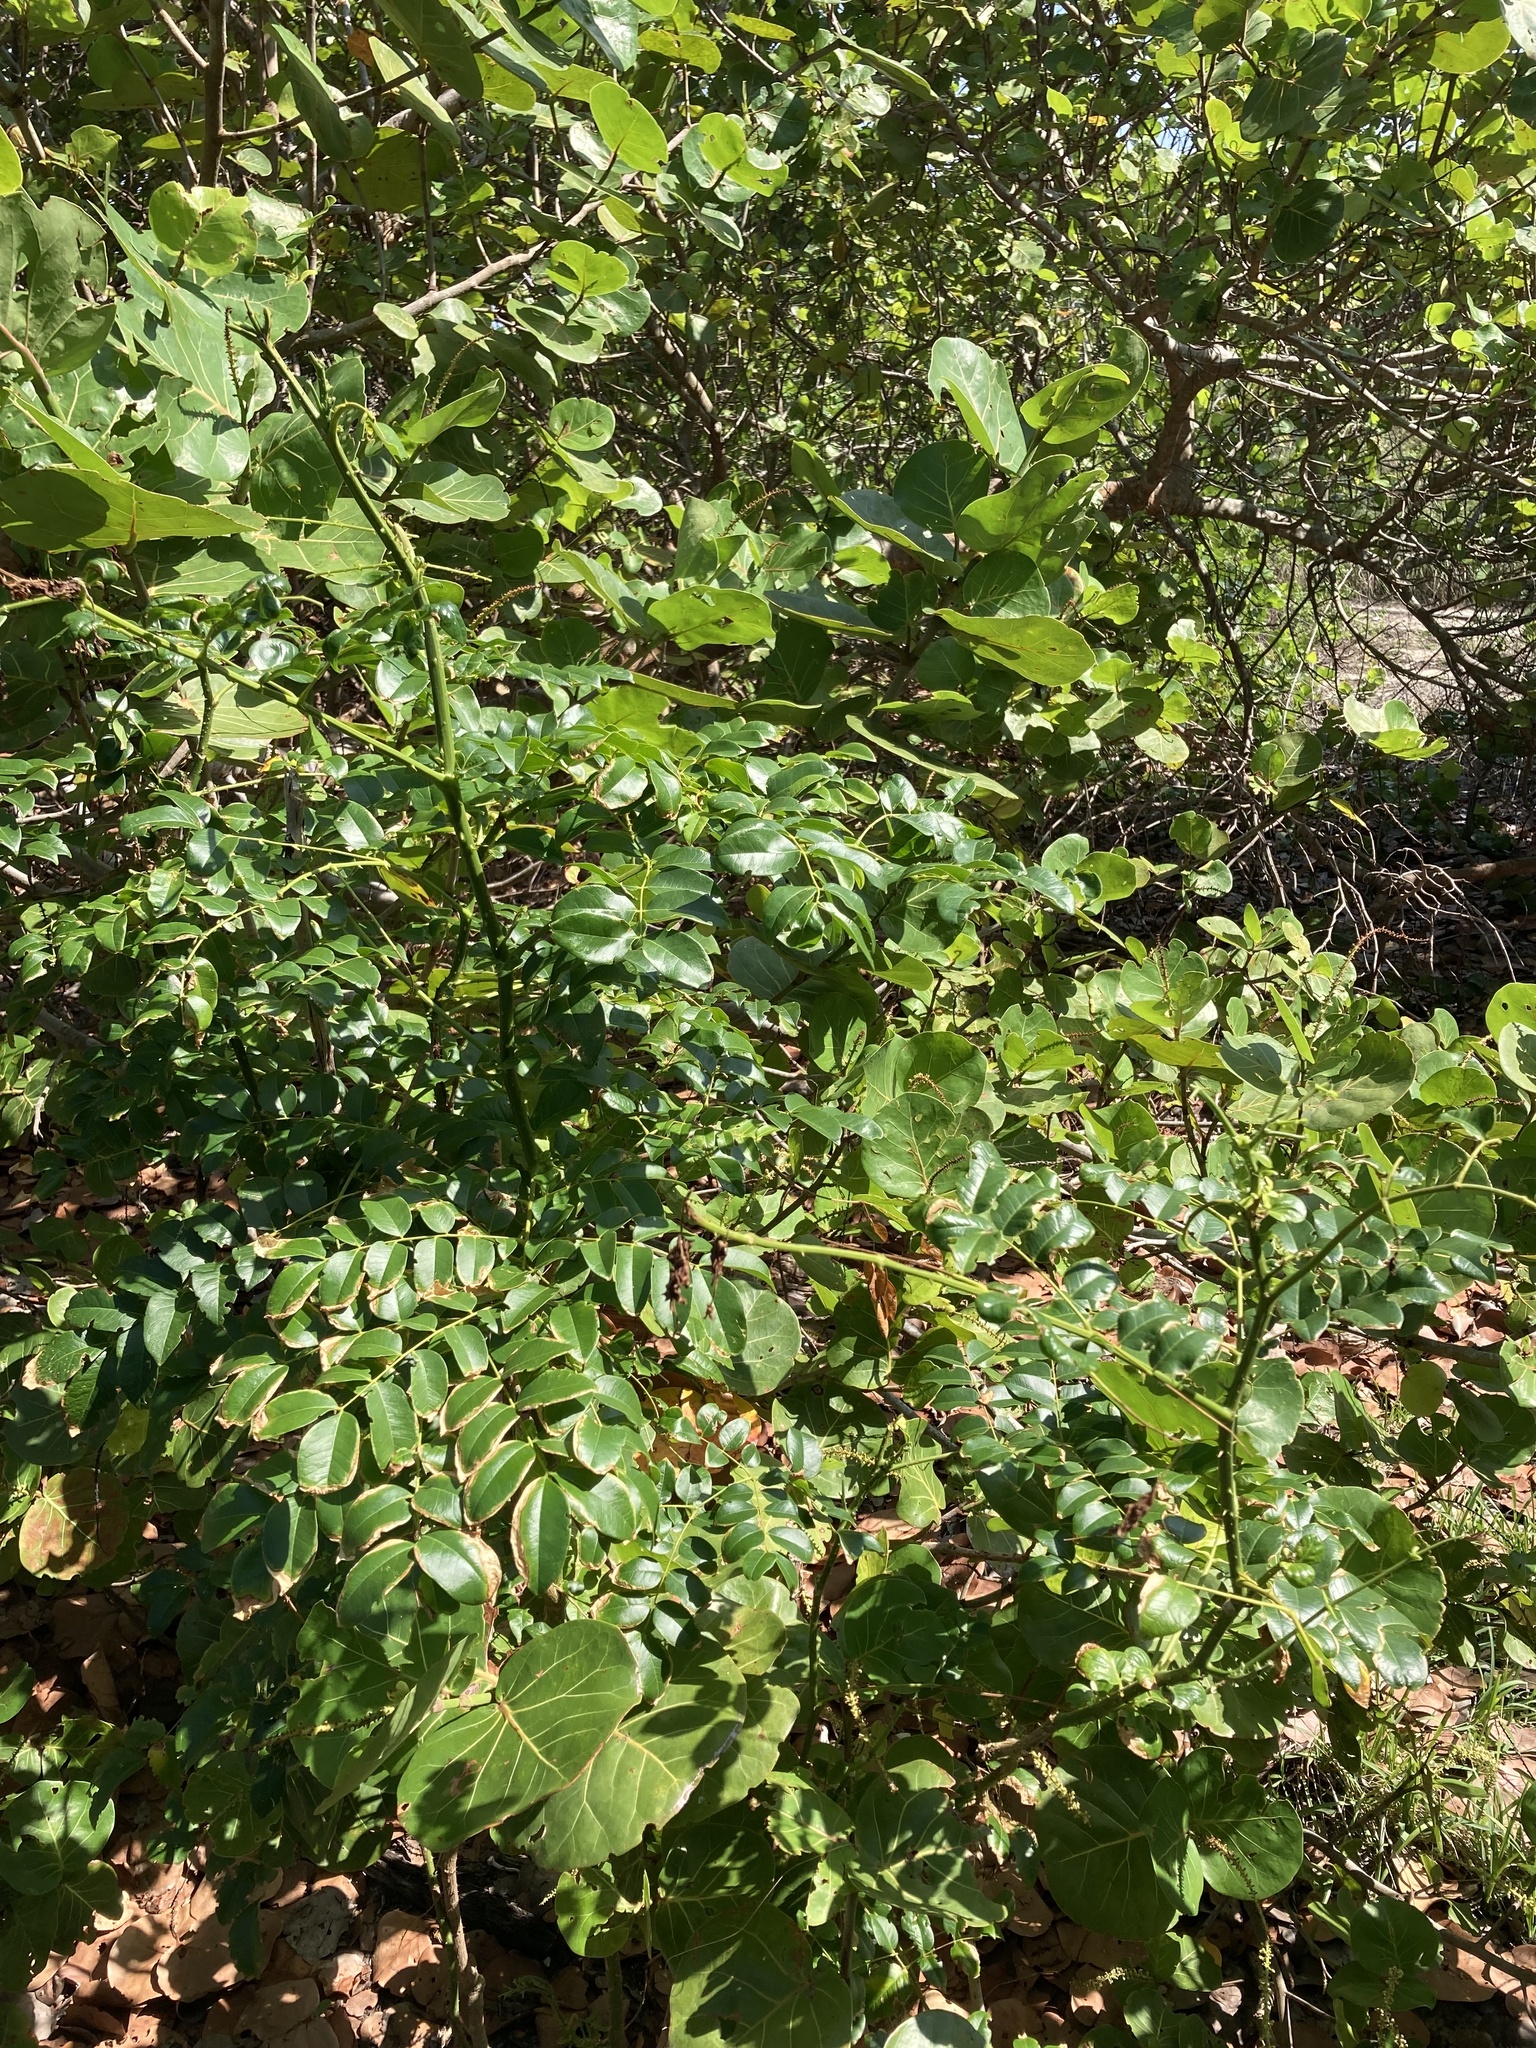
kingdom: Plantae
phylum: Tracheophyta
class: Magnoliopsida
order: Fabales
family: Fabaceae
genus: Guilandina
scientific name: Guilandina bonduc
